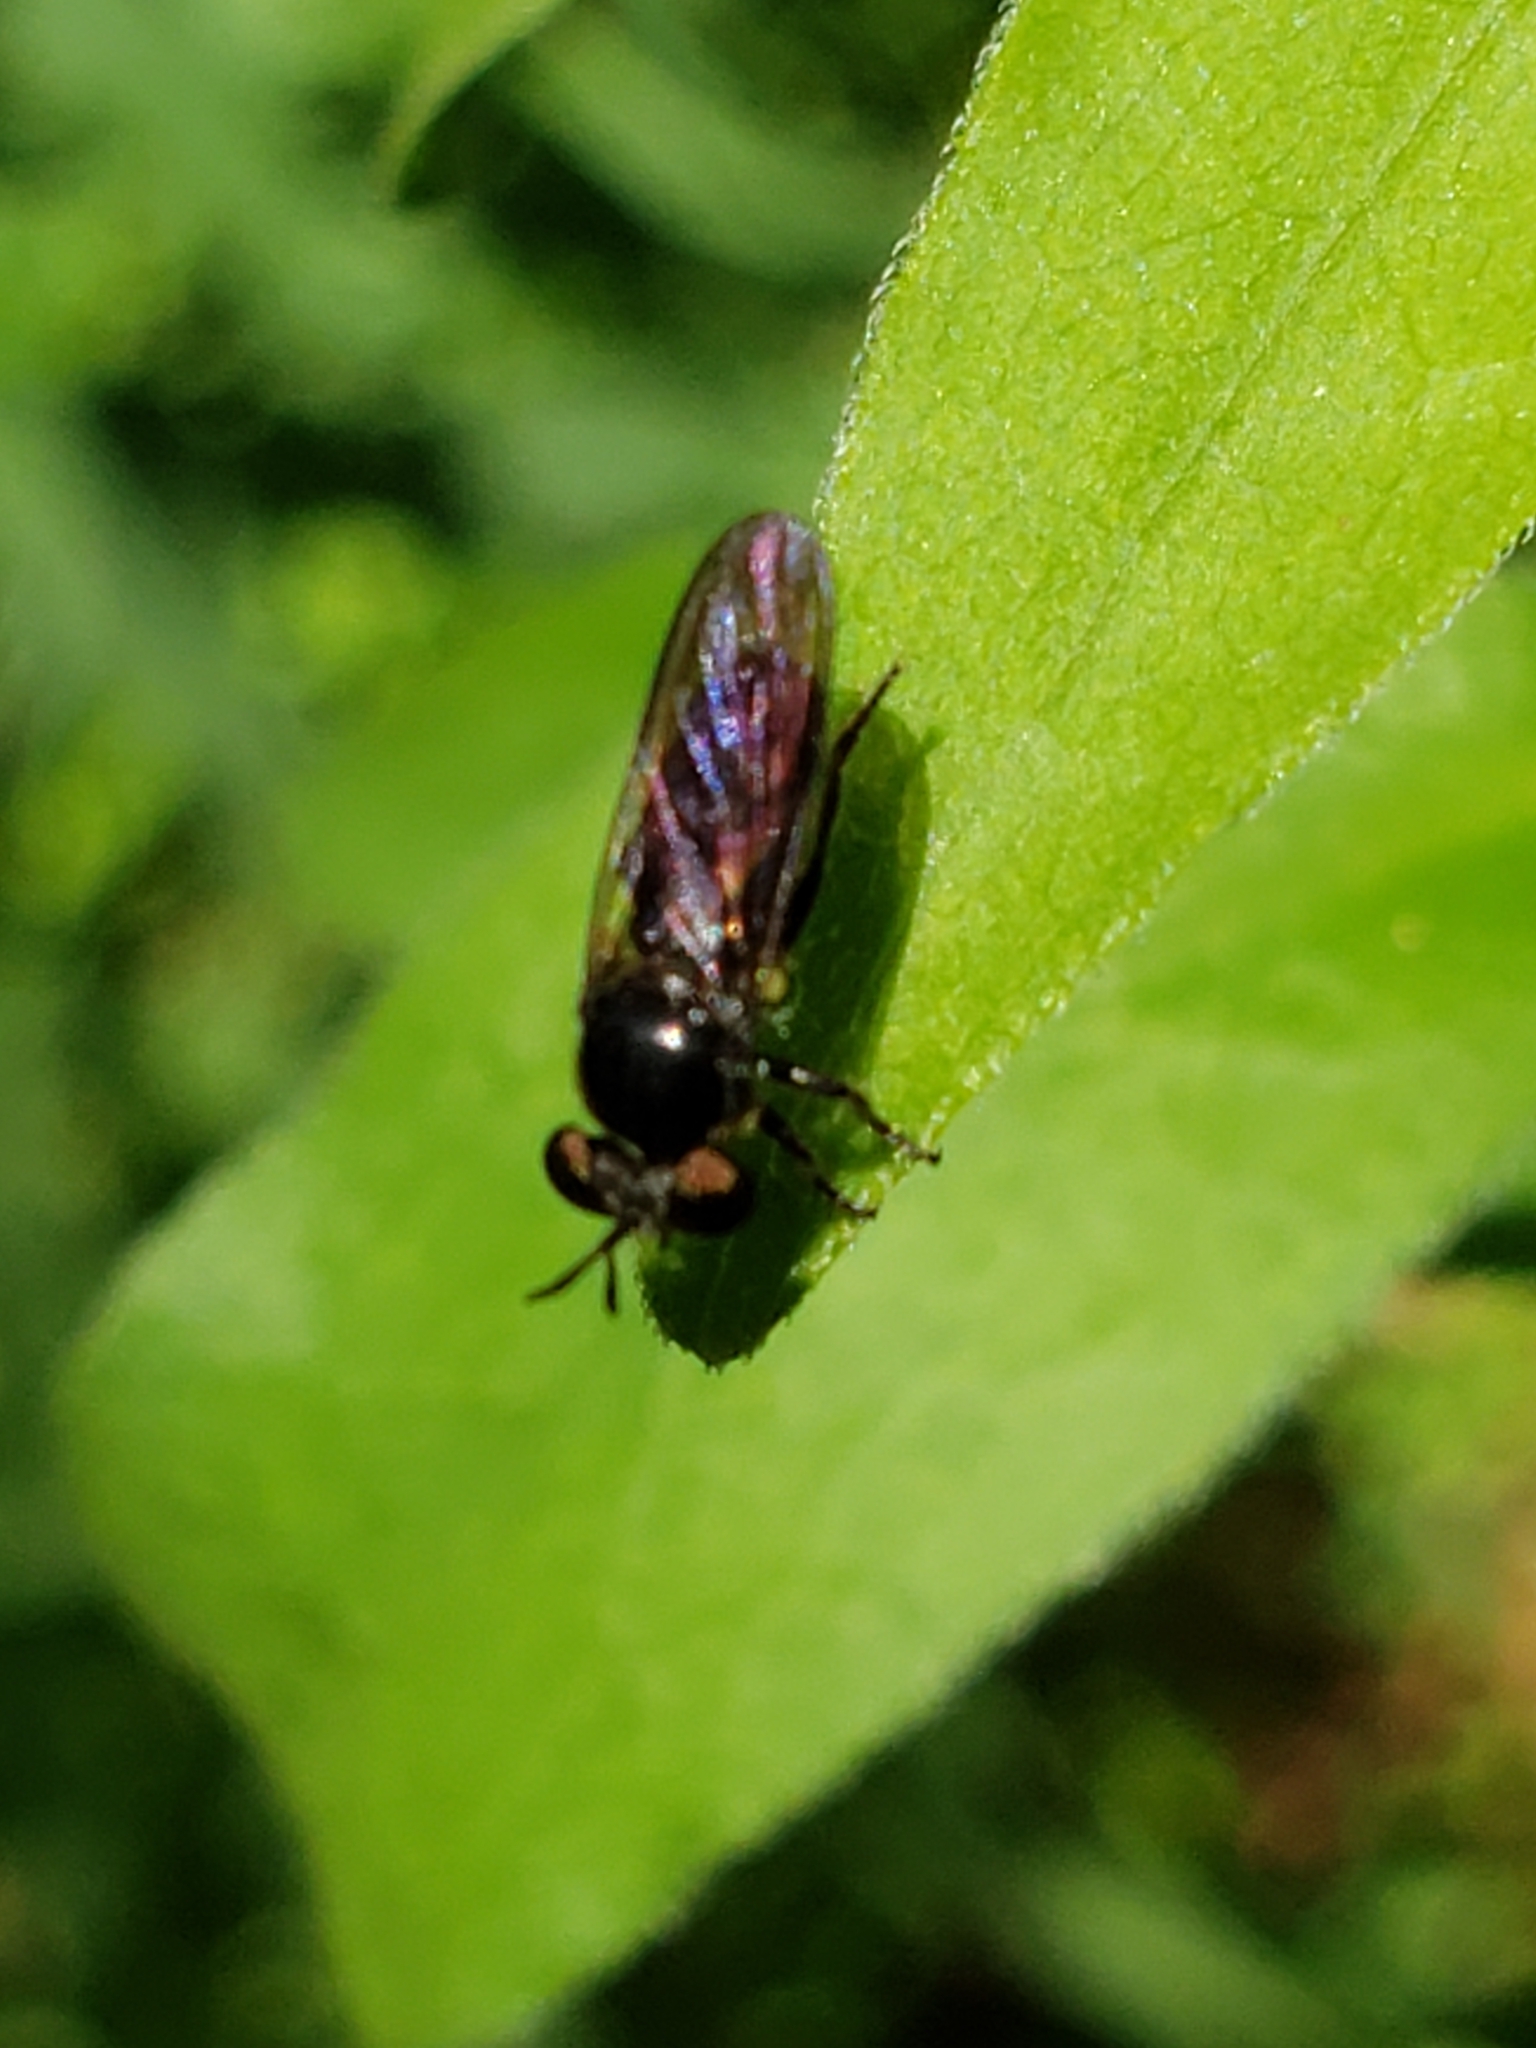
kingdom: Animalia
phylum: Arthropoda
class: Insecta
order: Diptera
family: Asilidae
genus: Cerotainia
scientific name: Cerotainia macrocera
